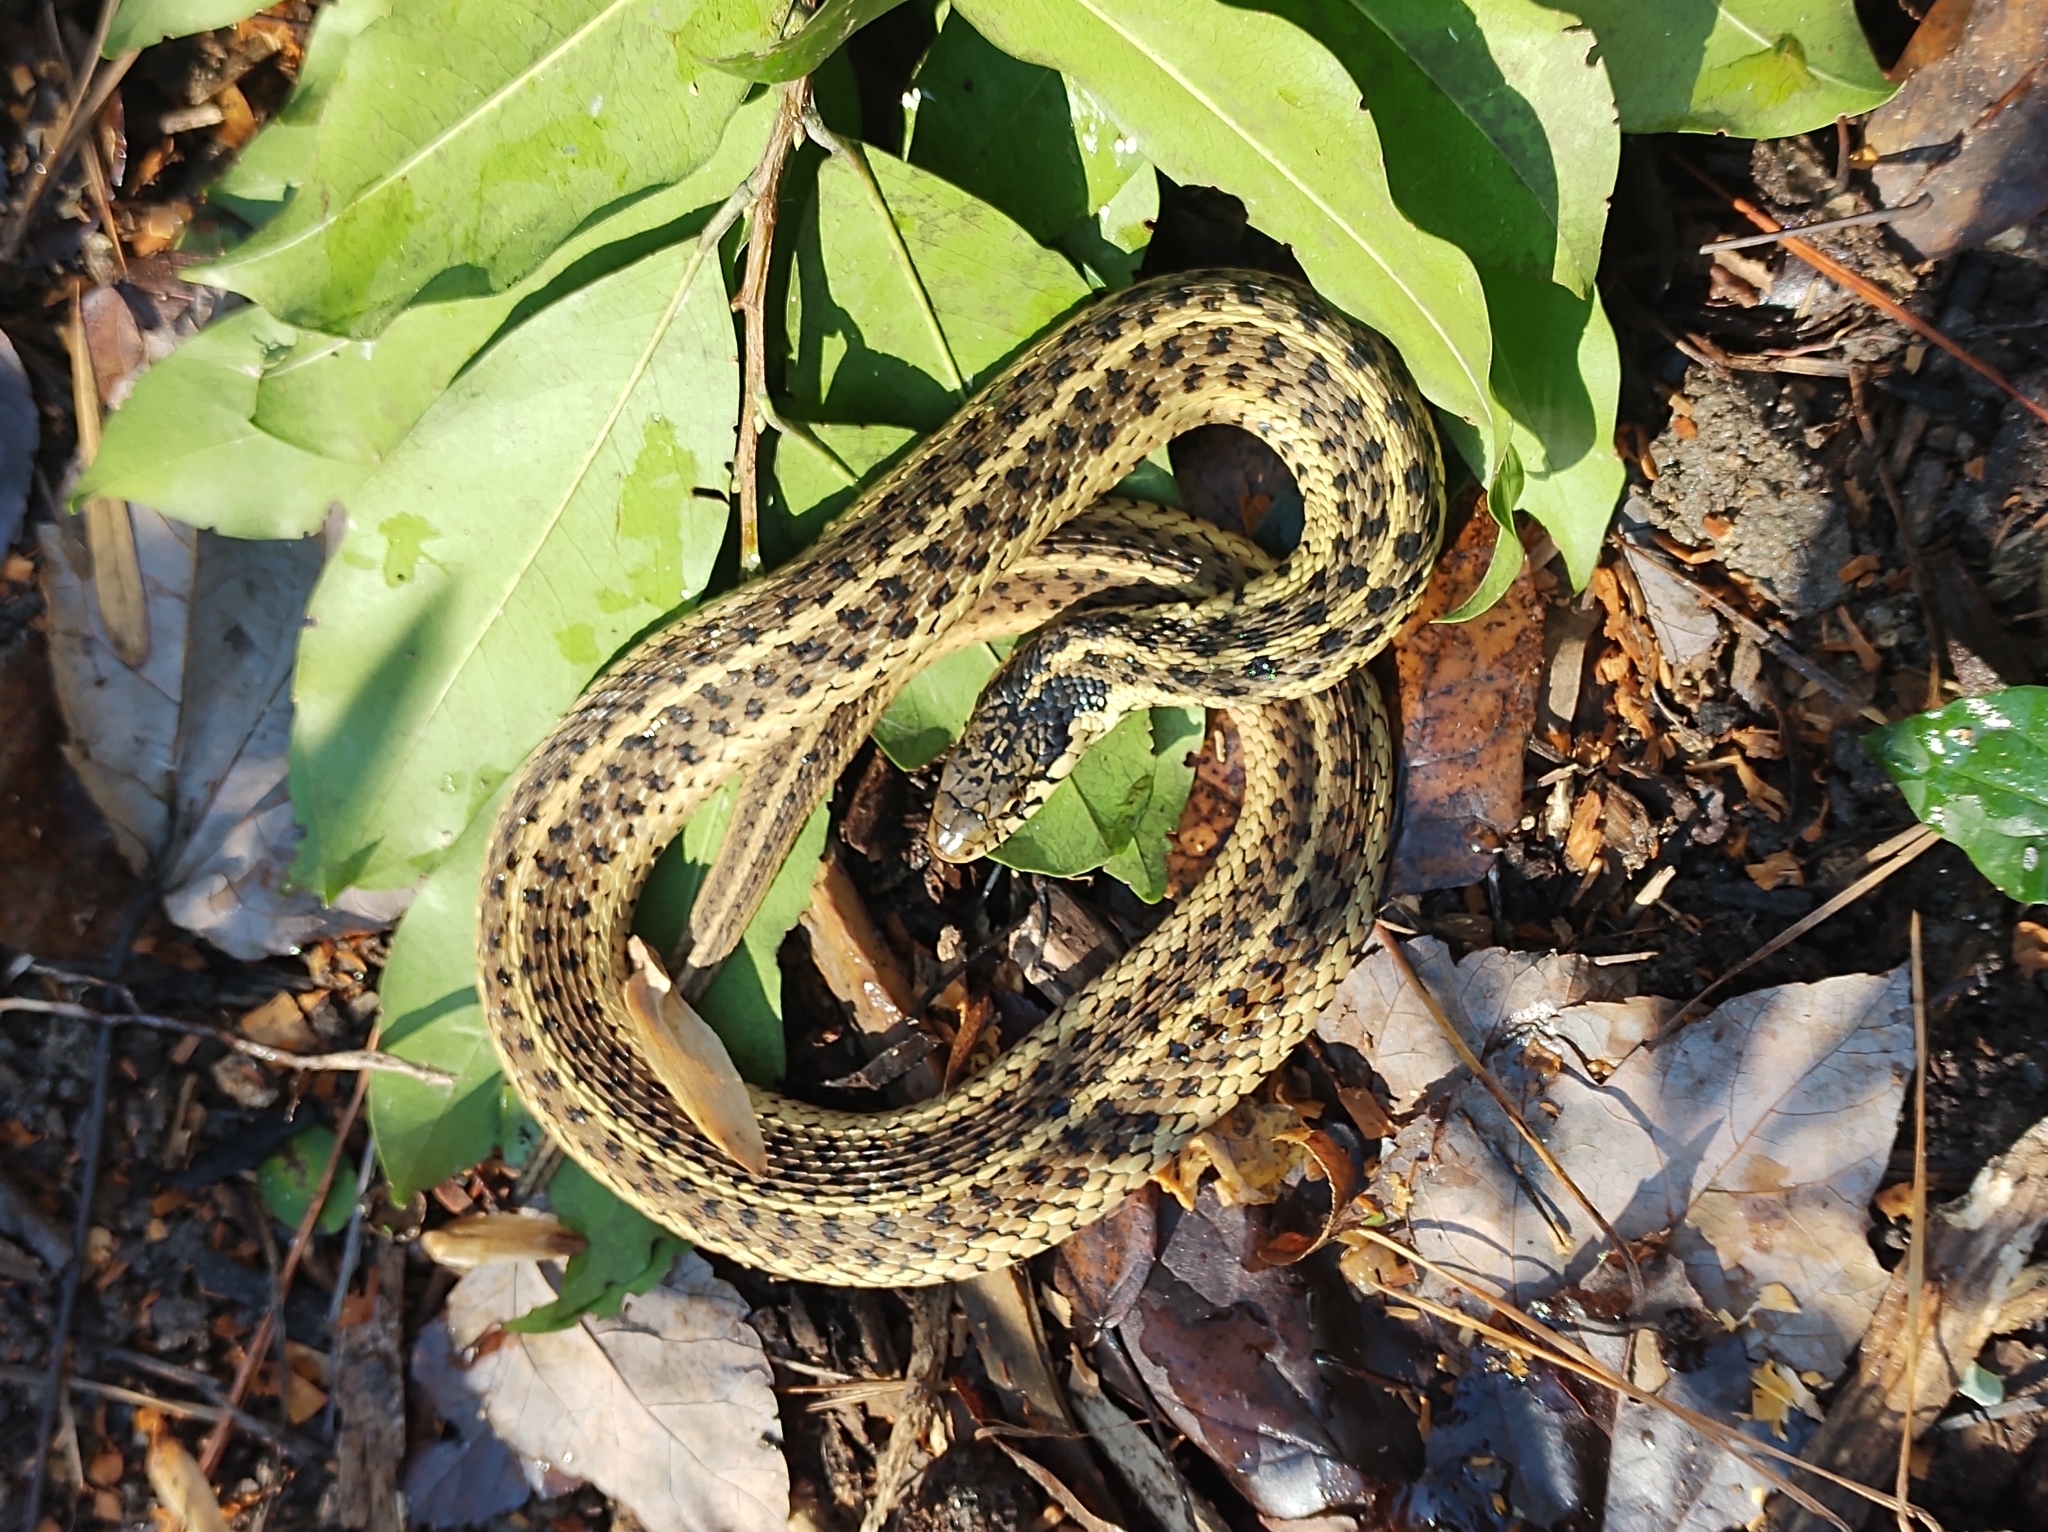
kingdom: Animalia
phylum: Chordata
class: Squamata
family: Colubridae
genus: Thamnophis
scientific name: Thamnophis sirtalis
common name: Common garter snake
